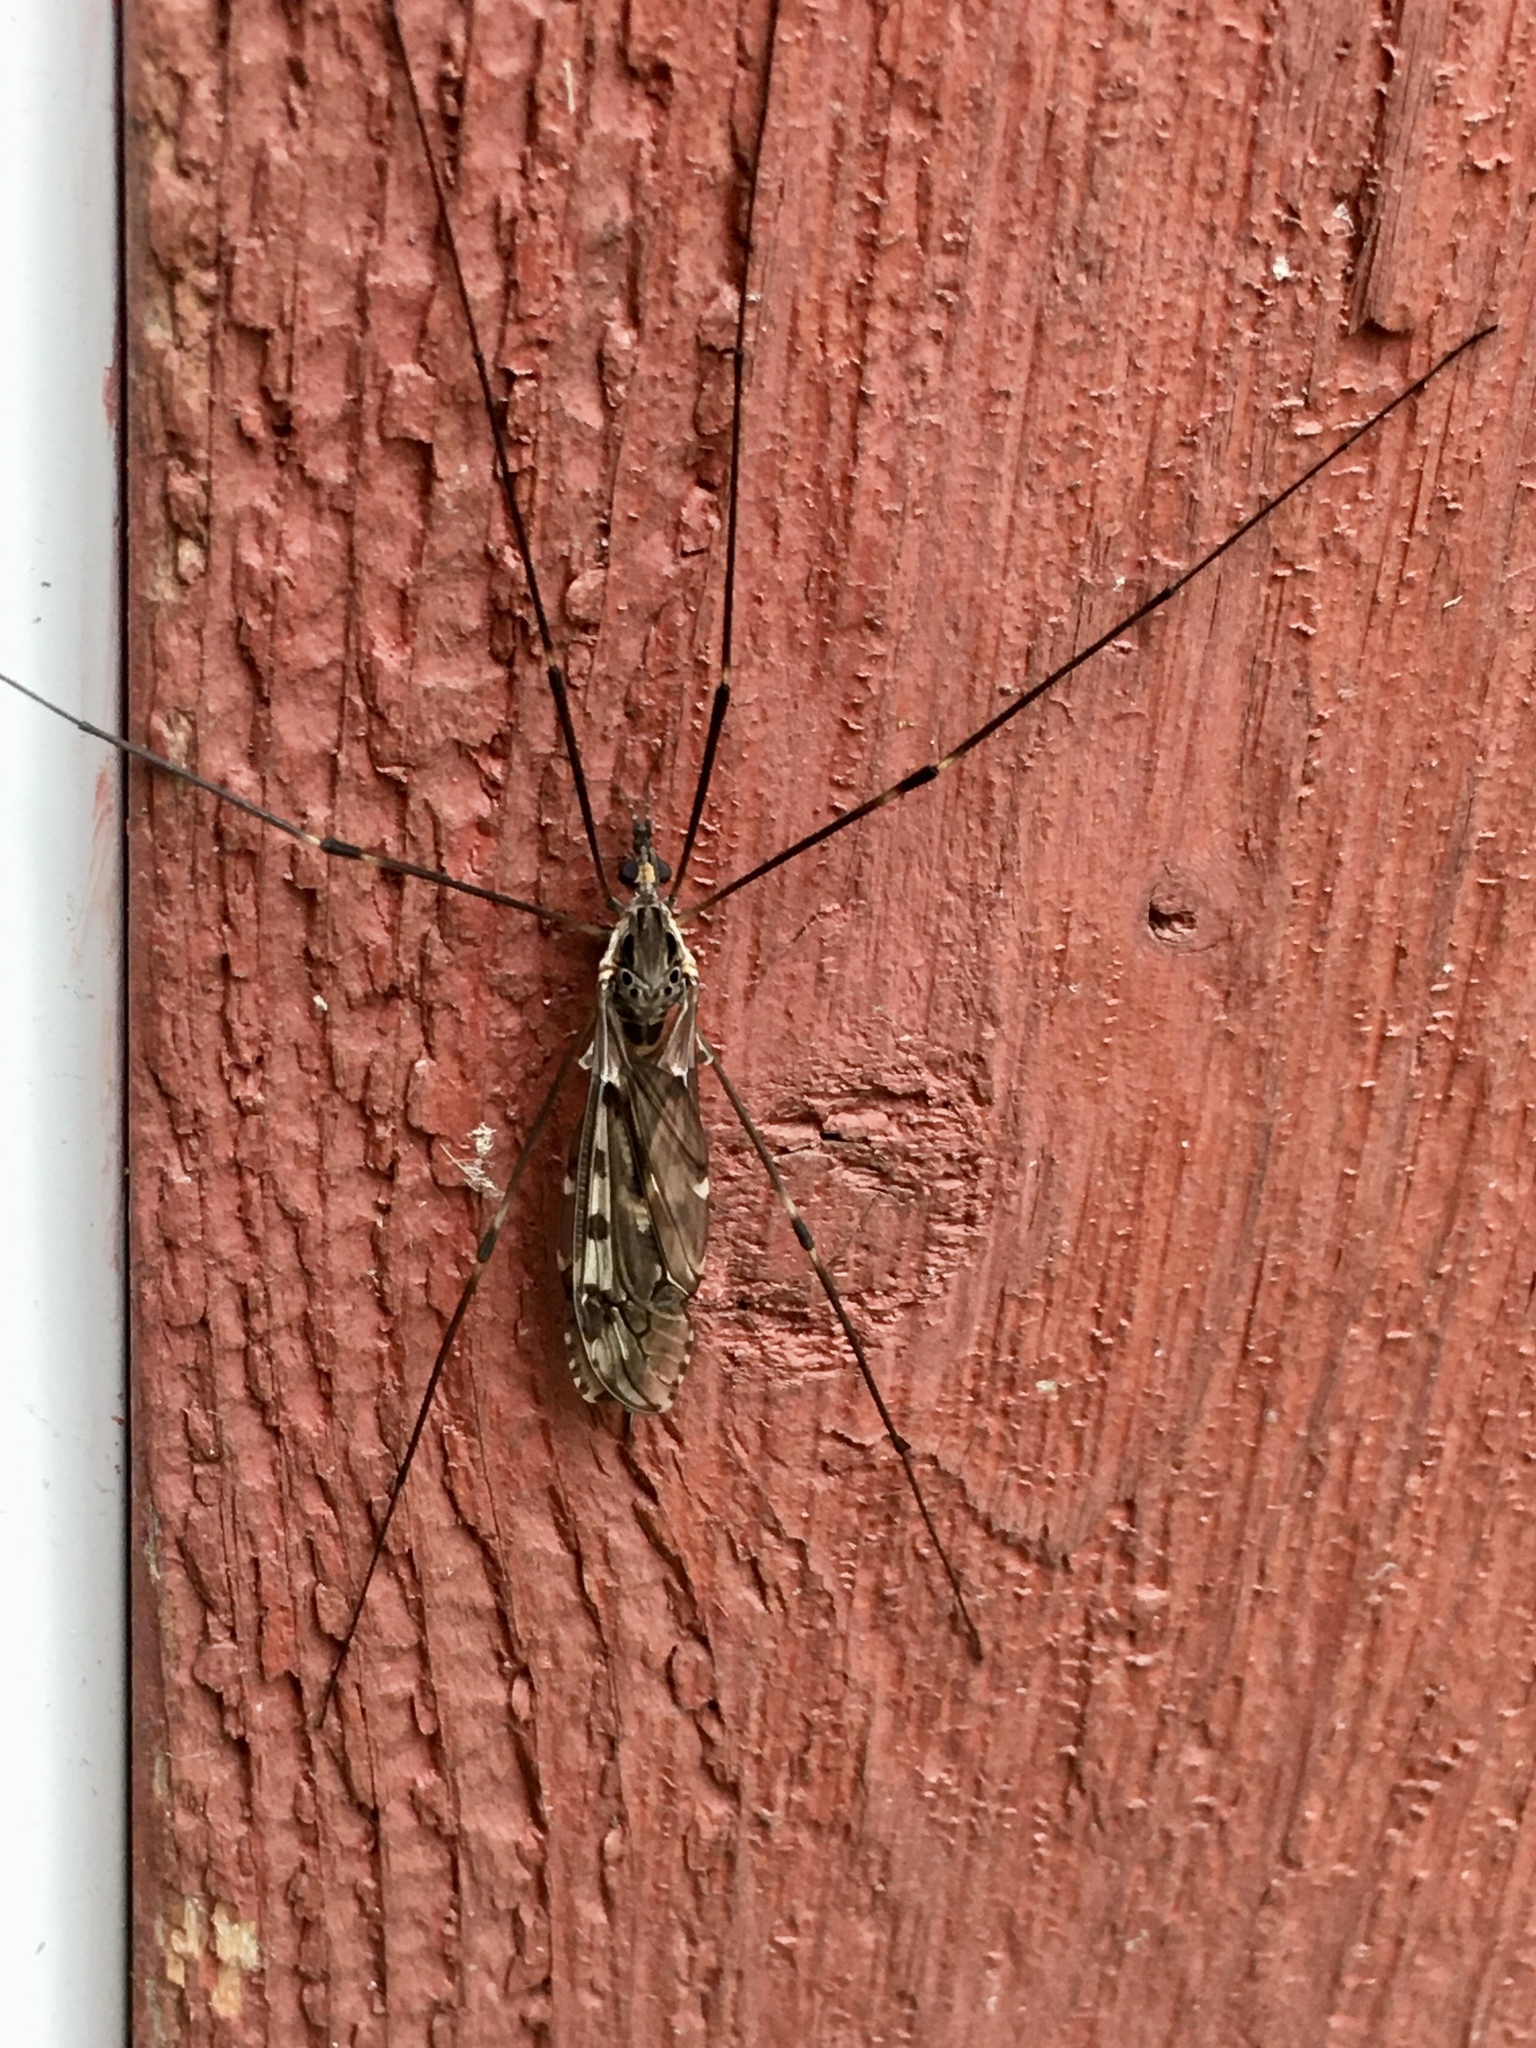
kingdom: Animalia
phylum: Arthropoda
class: Insecta
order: Diptera
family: Tipulidae
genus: Tipula
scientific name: Tipula abdominalis
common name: Giant crane fly
